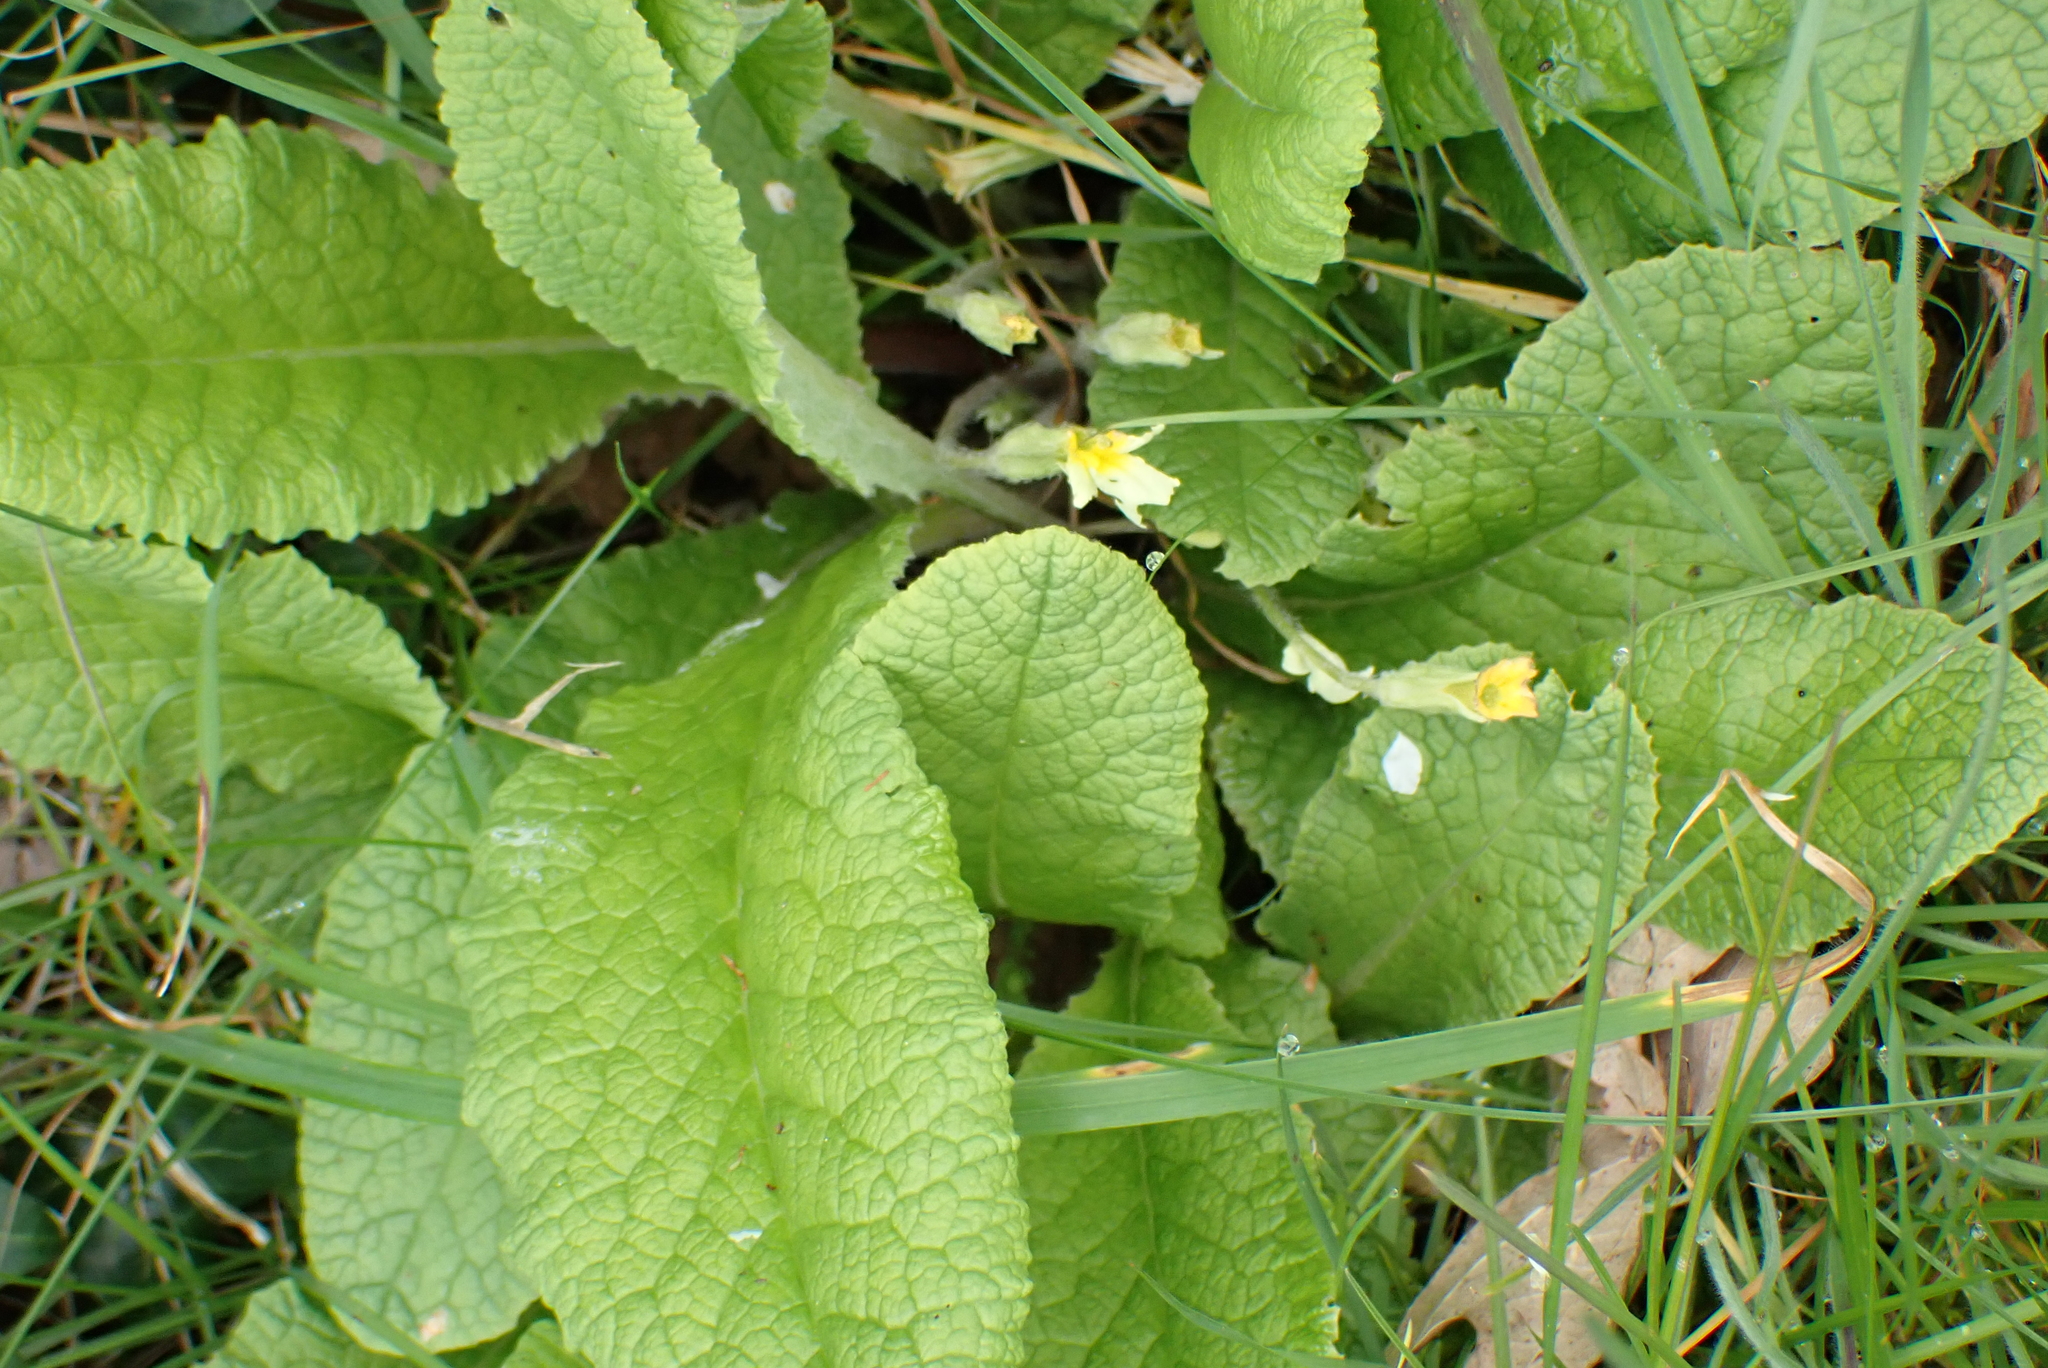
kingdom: Plantae
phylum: Tracheophyta
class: Magnoliopsida
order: Ericales
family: Primulaceae
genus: Primula
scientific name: Primula vulgaris
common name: Primrose
